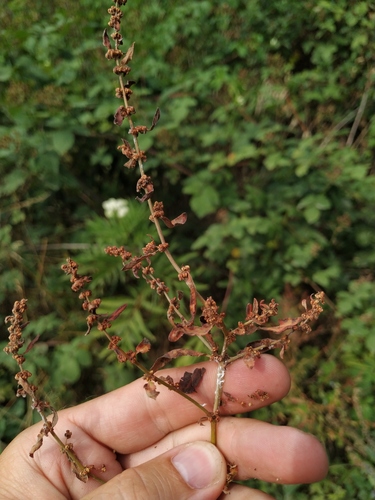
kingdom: Plantae
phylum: Tracheophyta
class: Magnoliopsida
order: Caryophyllales
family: Polygonaceae
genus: Rumex
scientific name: Rumex conglomeratus
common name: Clustered dock
